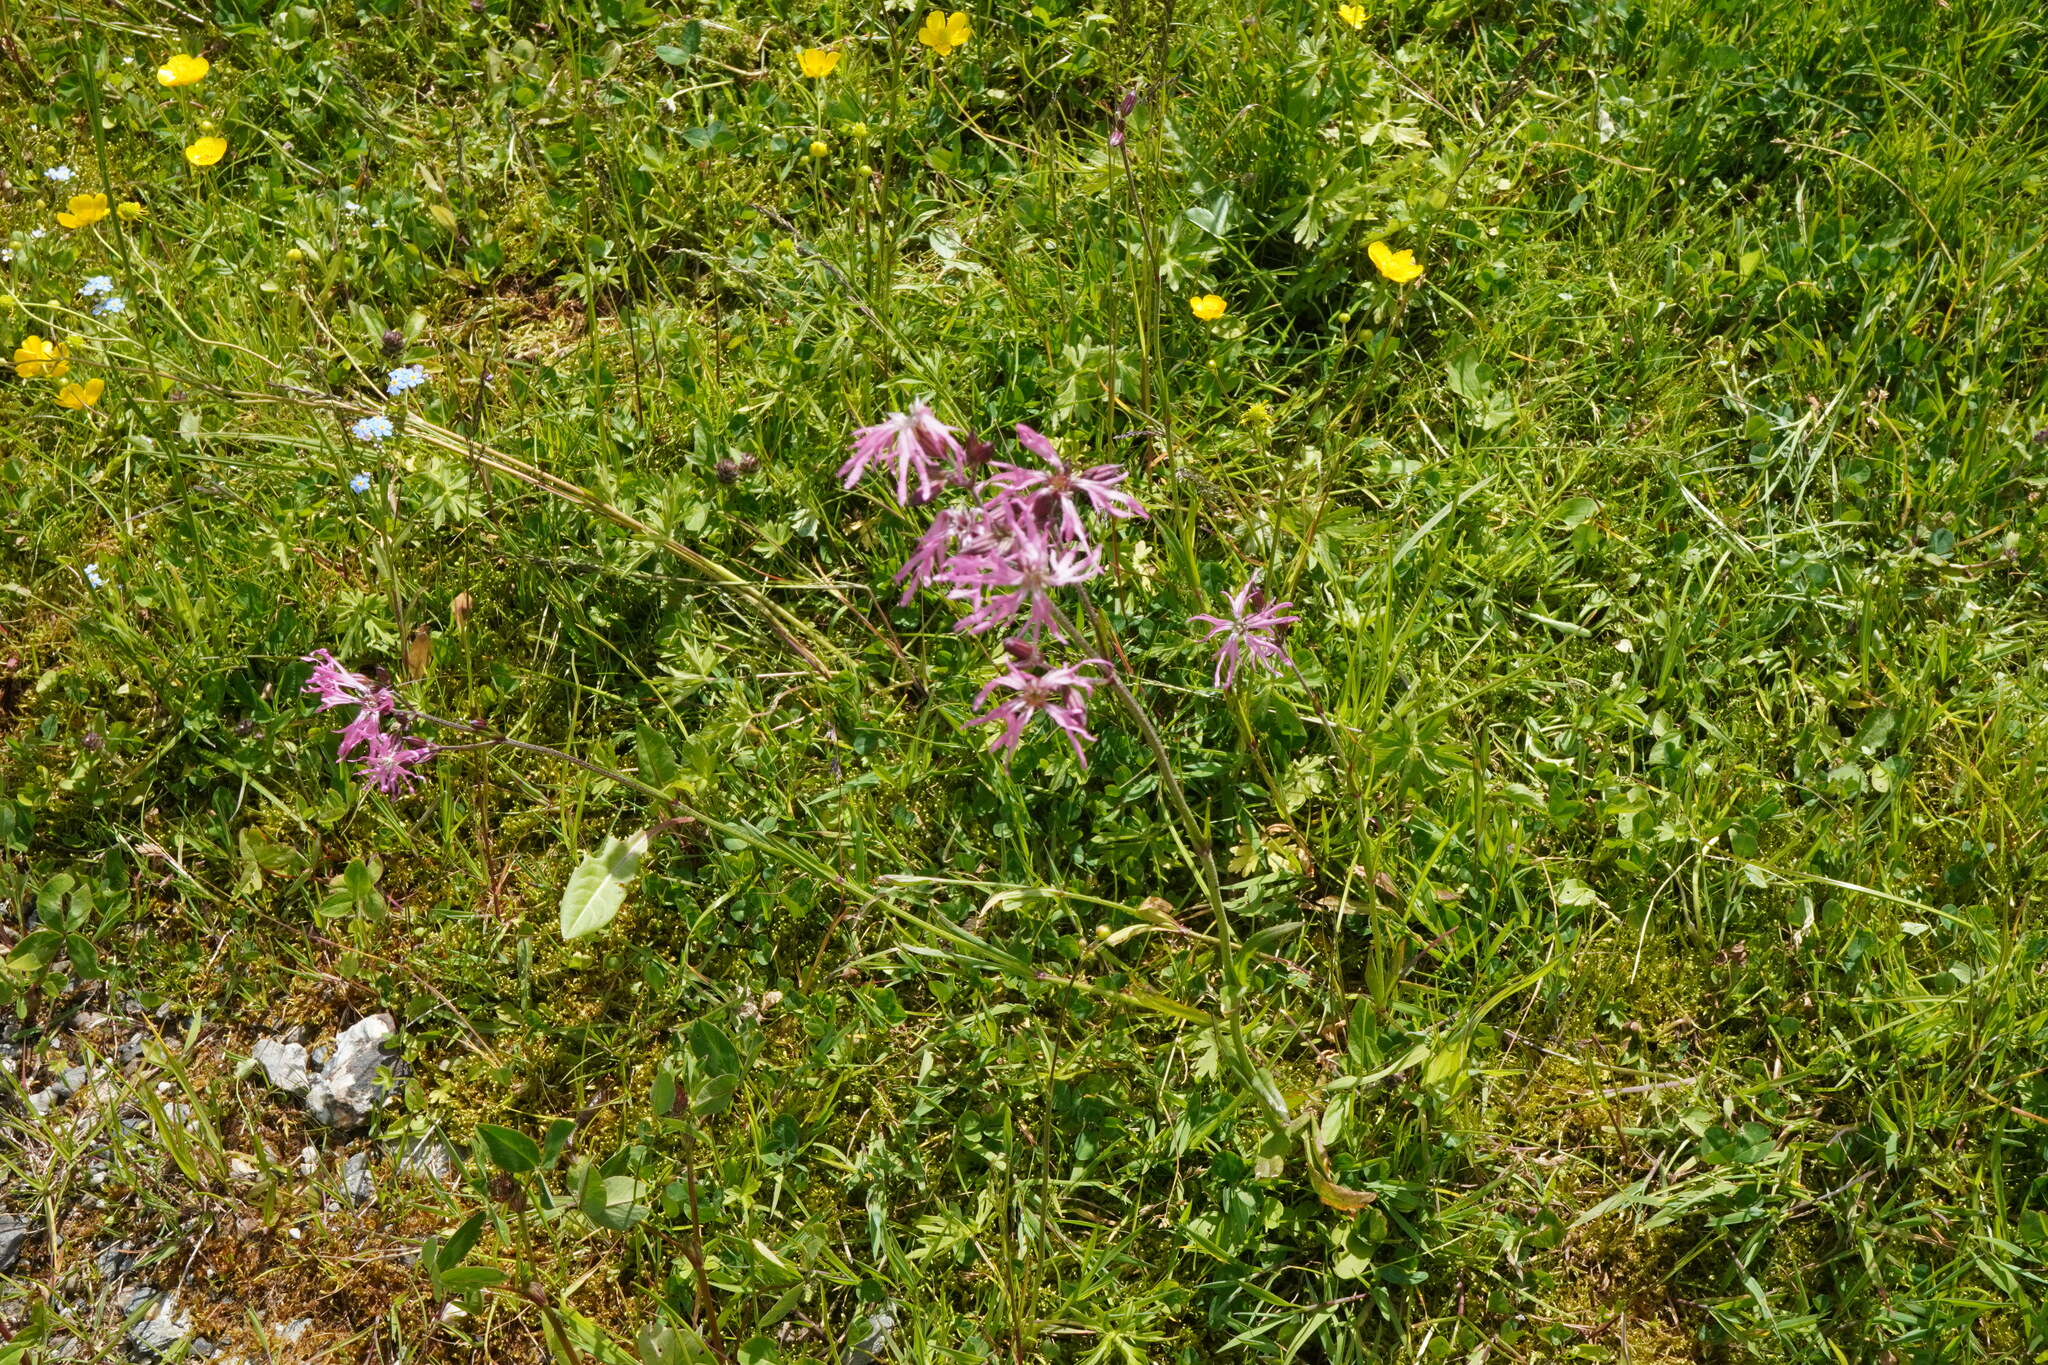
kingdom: Plantae
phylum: Tracheophyta
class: Magnoliopsida
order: Caryophyllales
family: Caryophyllaceae
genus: Silene
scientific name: Silene flos-cuculi
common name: Ragged-robin
